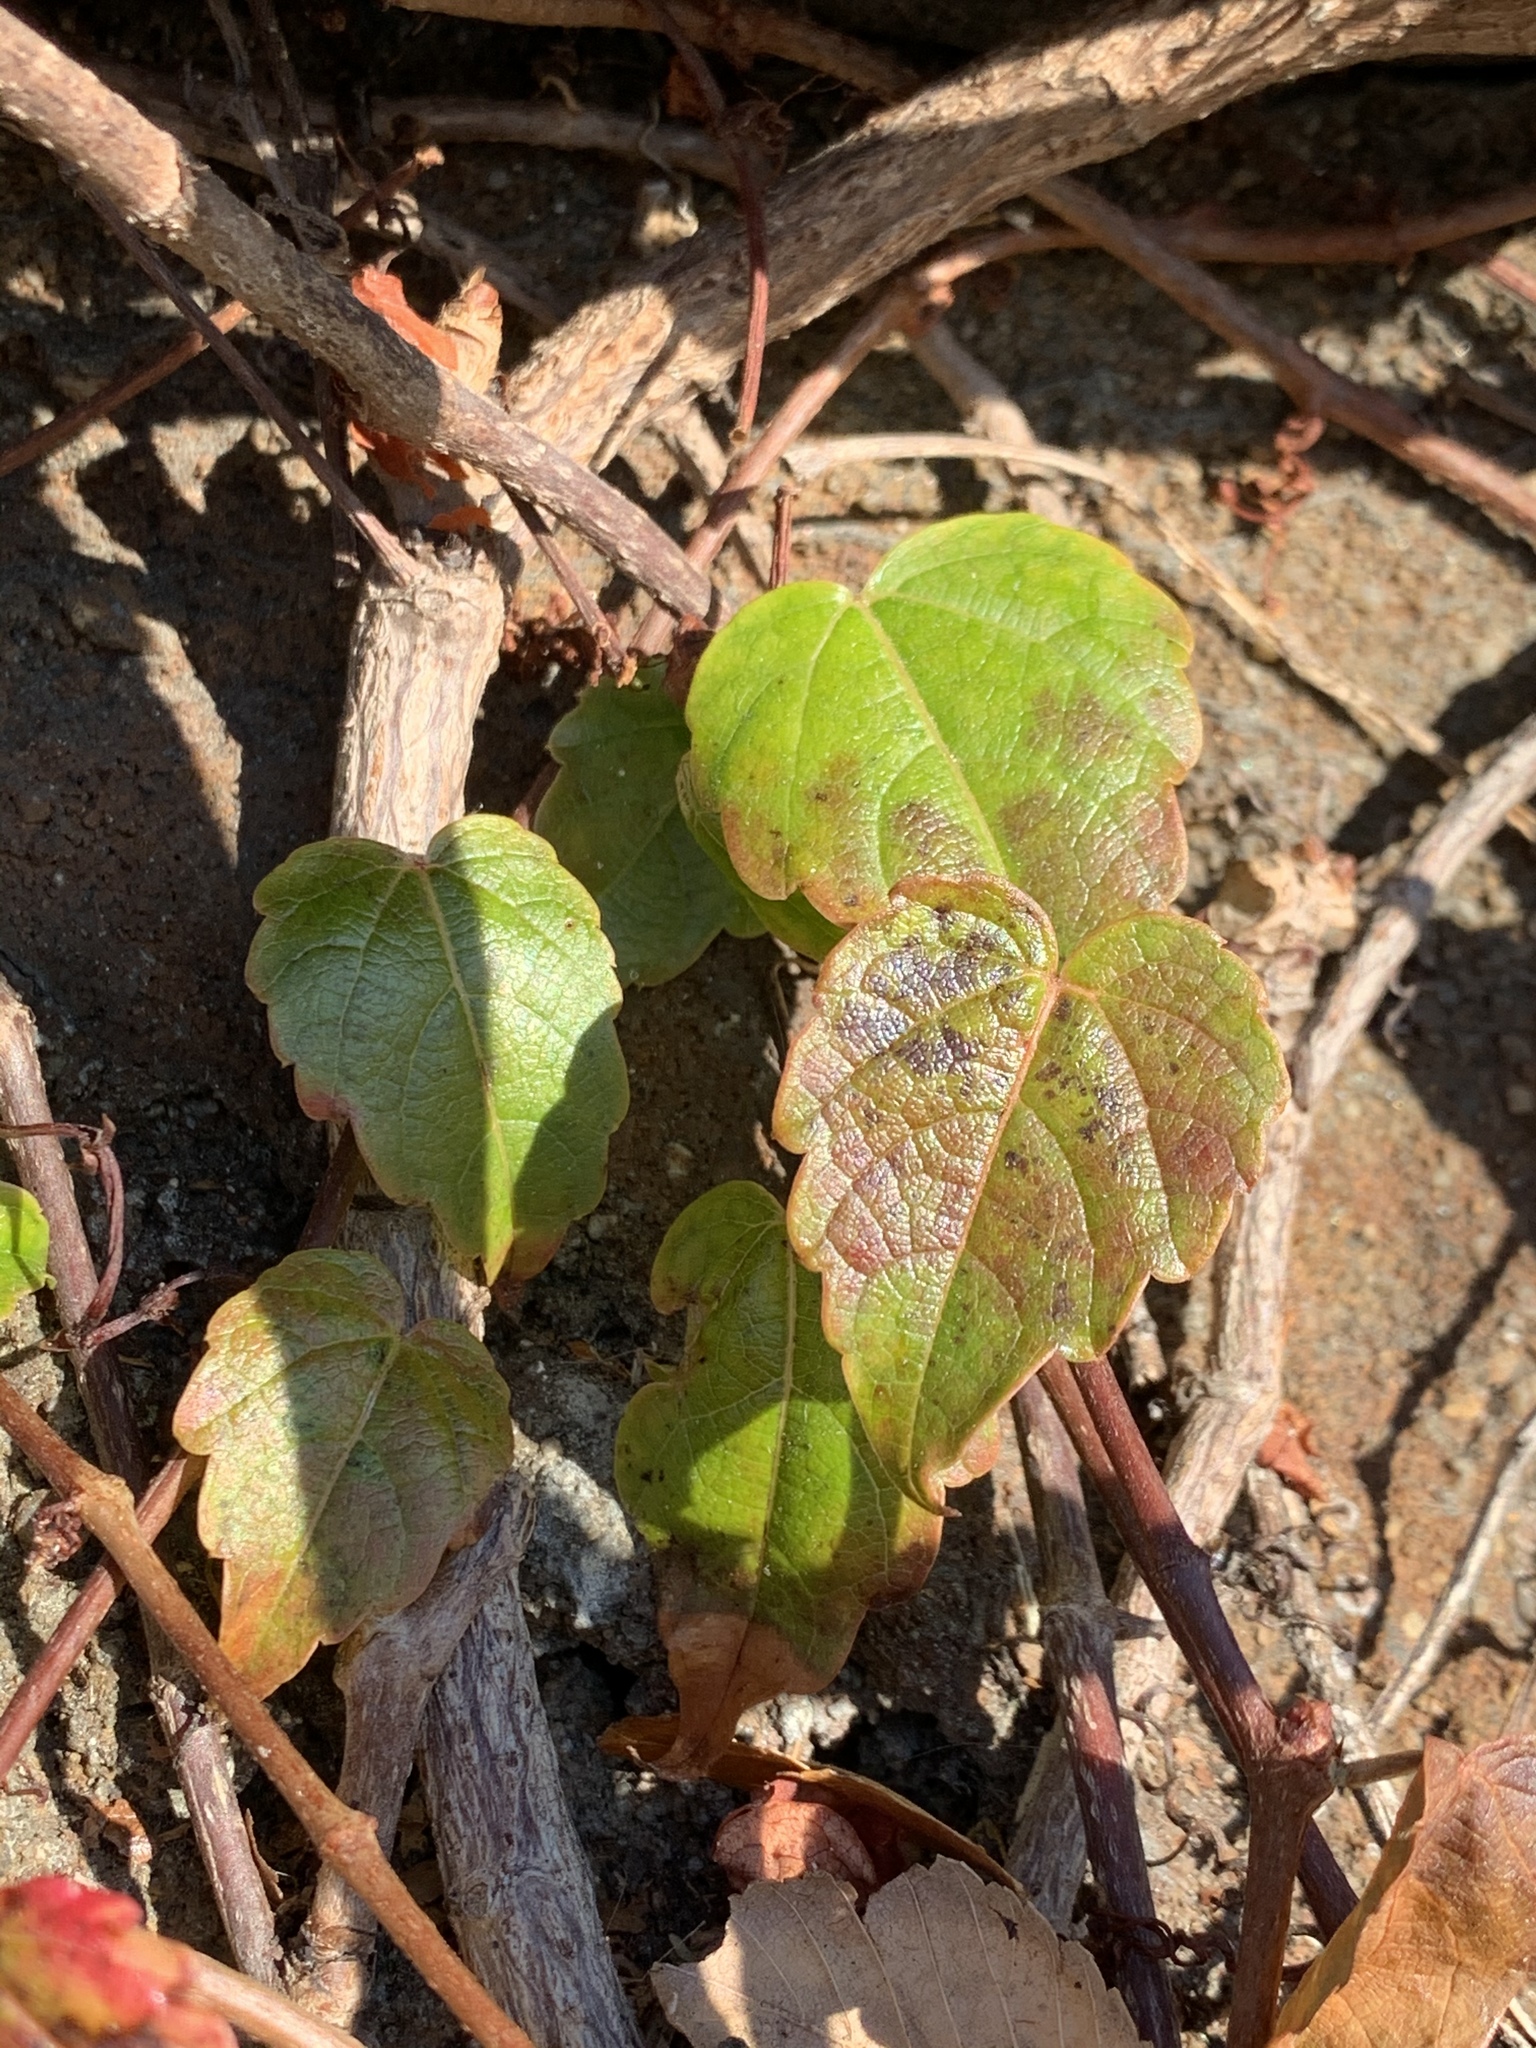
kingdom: Plantae
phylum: Tracheophyta
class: Magnoliopsida
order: Vitales
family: Vitaceae
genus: Parthenocissus
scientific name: Parthenocissus tricuspidata
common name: Boston ivy
